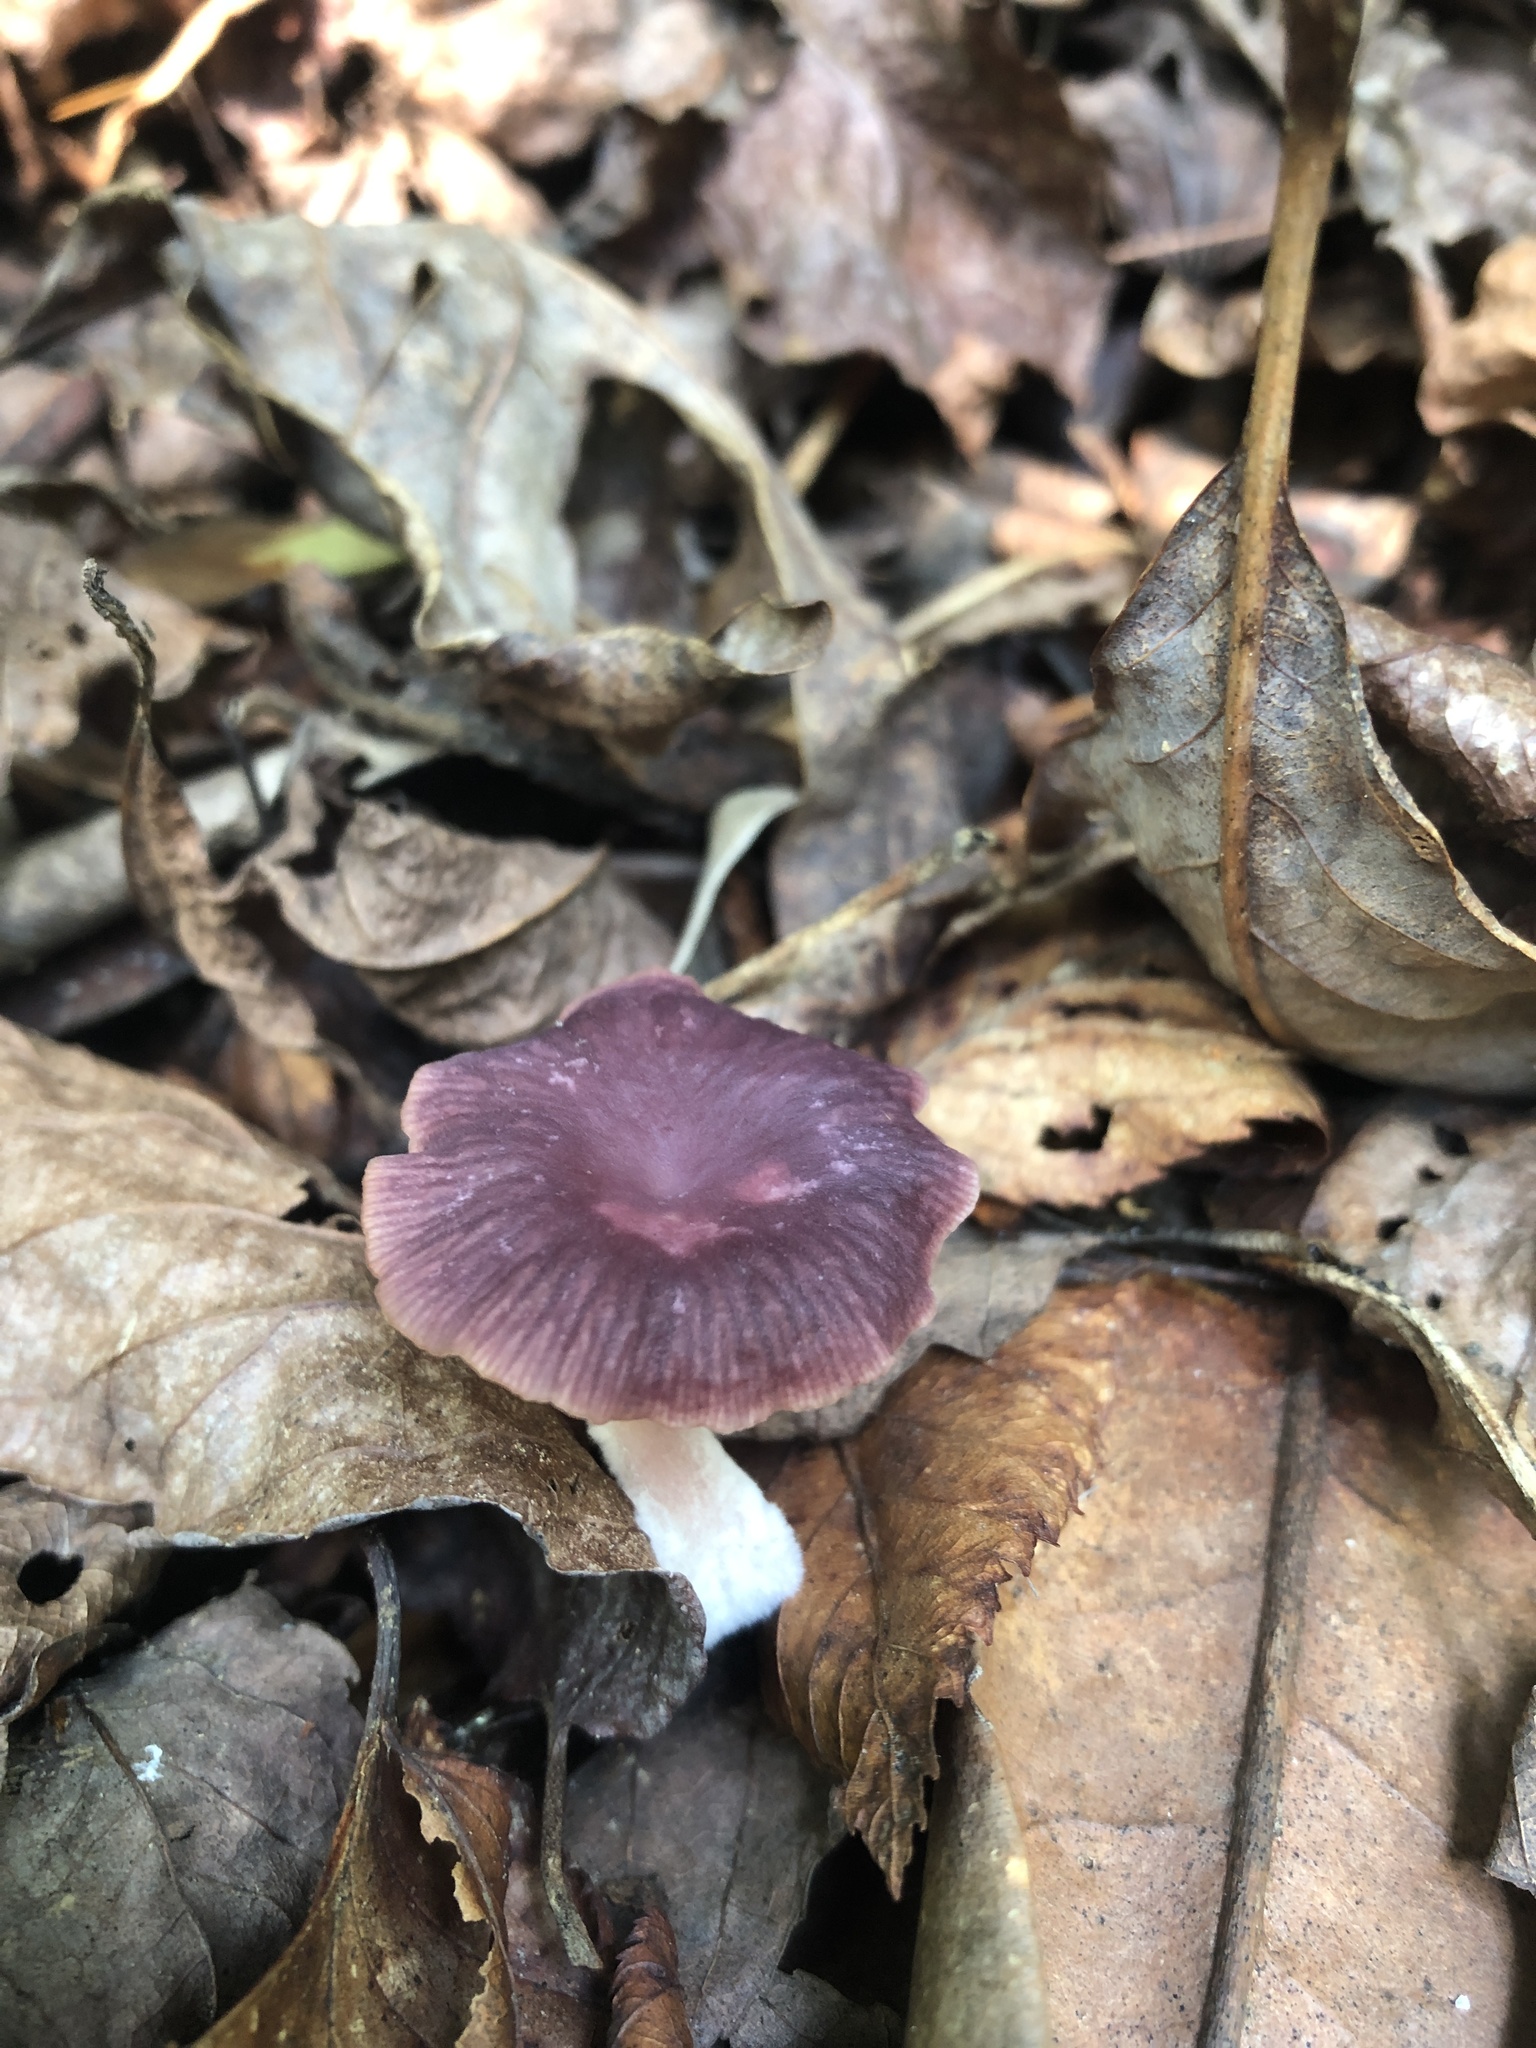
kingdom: Fungi
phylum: Basidiomycota
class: Agaricomycetes
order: Agaricales
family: Omphalotaceae
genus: Gymnopus
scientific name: Gymnopus iocephalus
